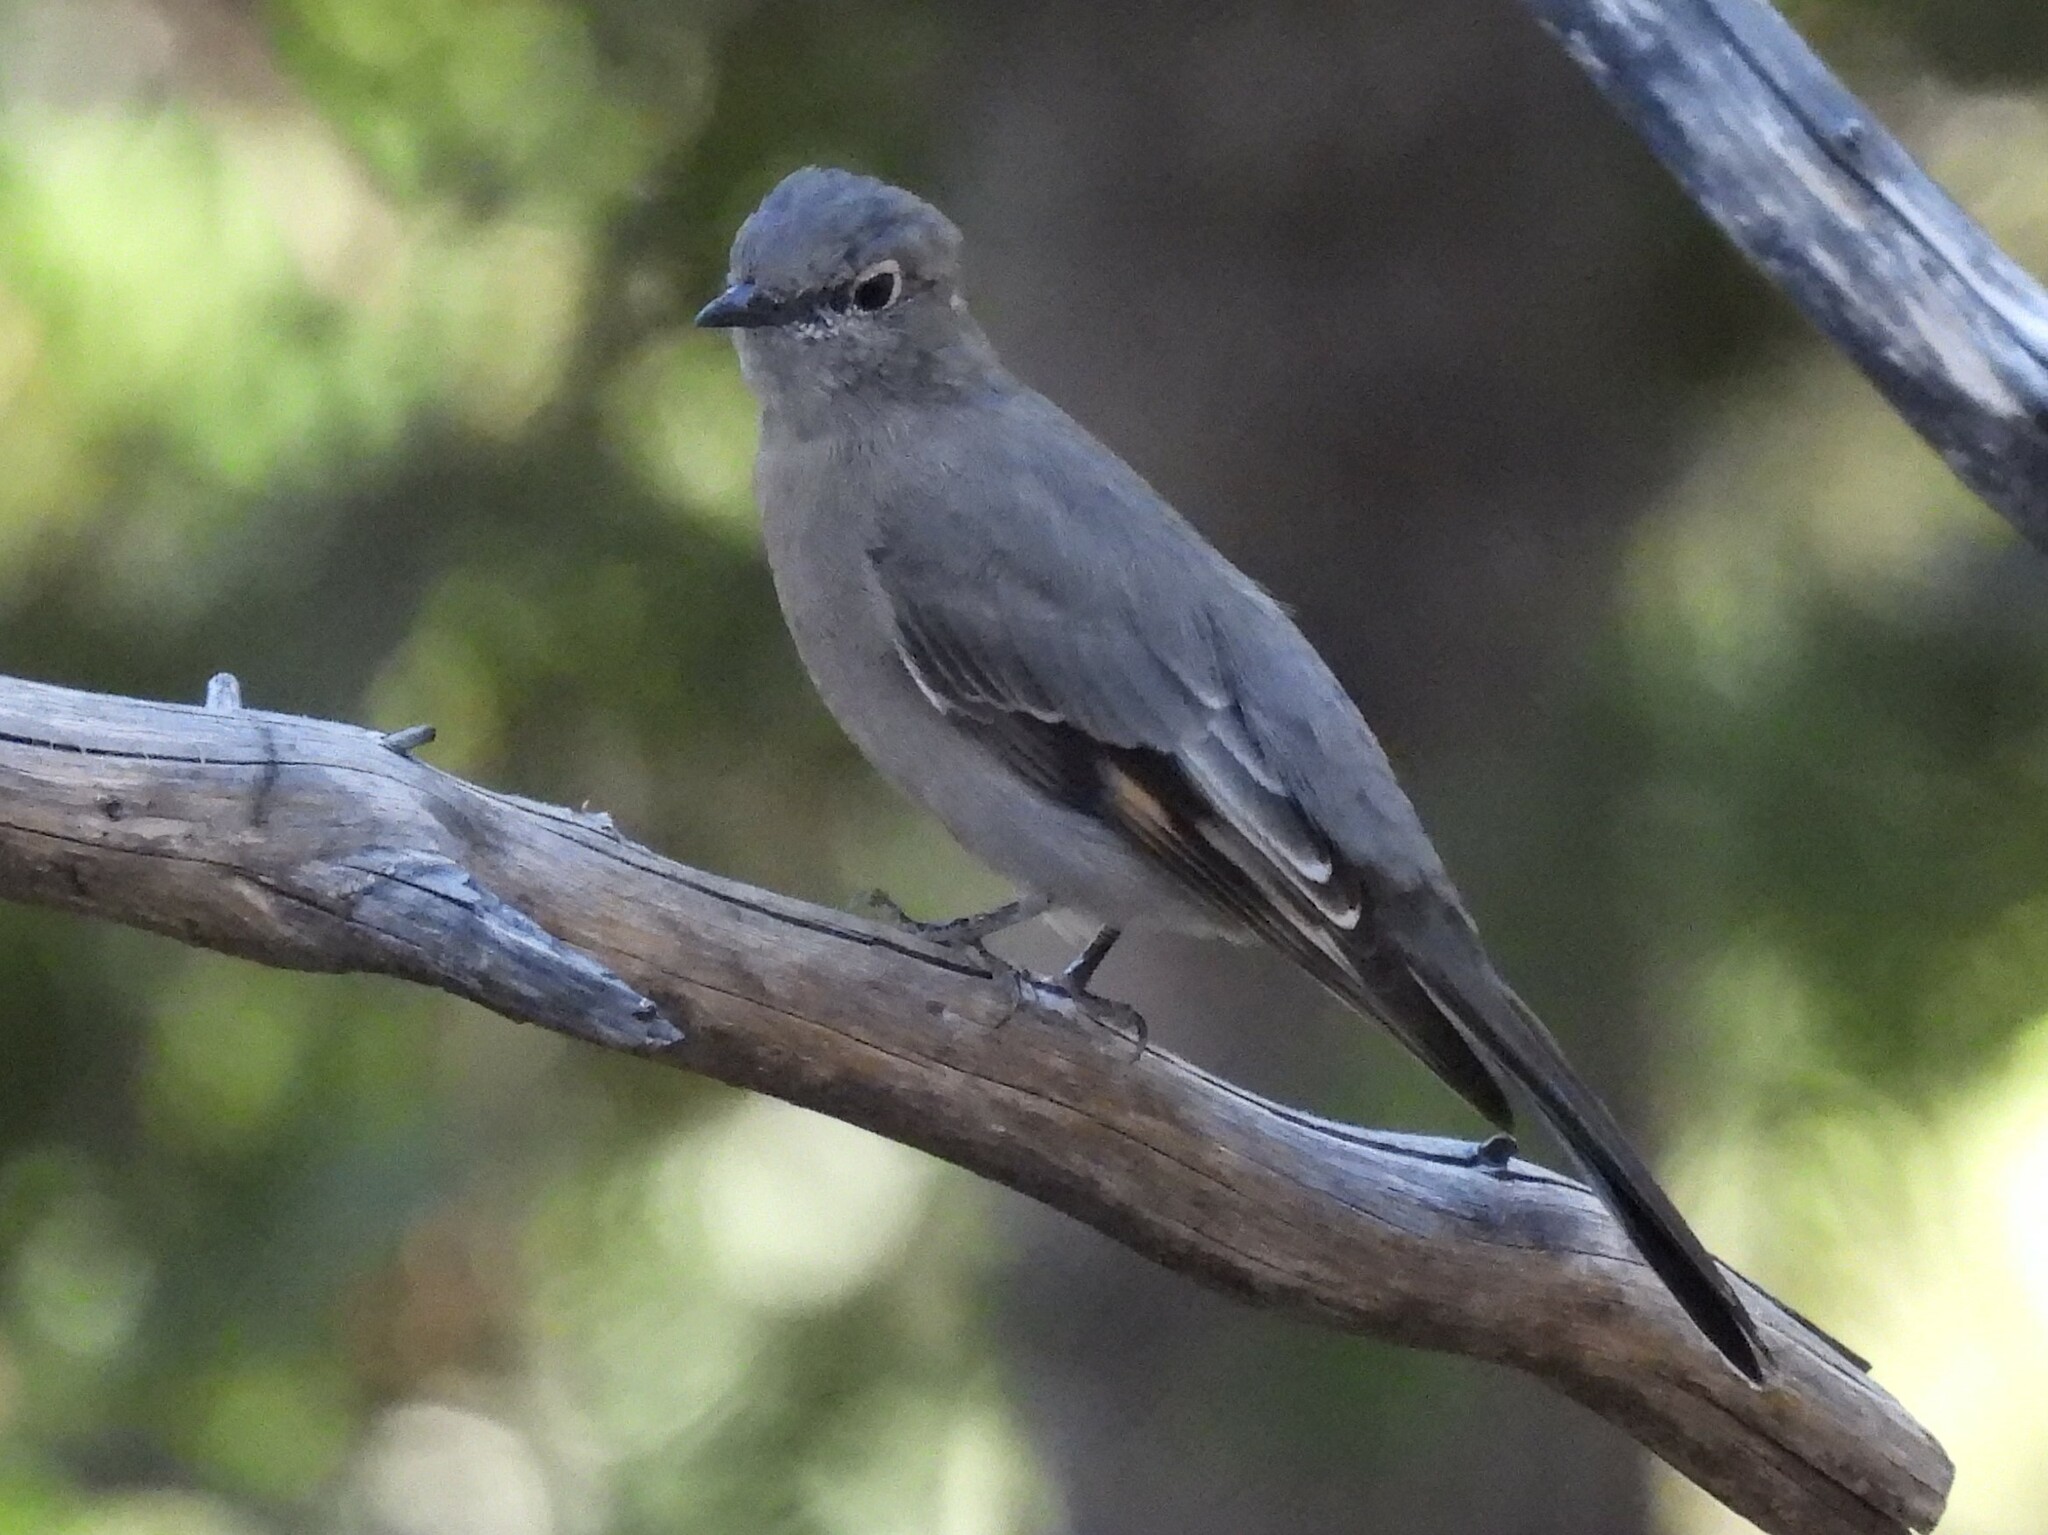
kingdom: Animalia
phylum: Chordata
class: Aves
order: Passeriformes
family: Turdidae
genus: Myadestes
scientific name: Myadestes townsendi
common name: Townsend's solitaire
